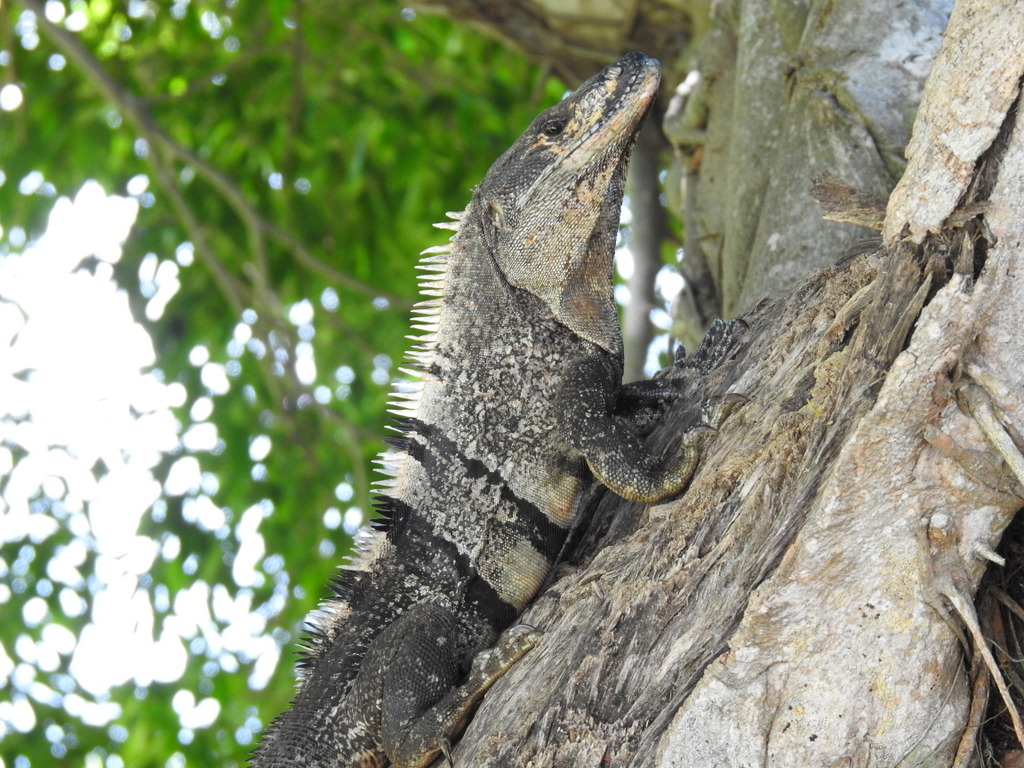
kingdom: Animalia
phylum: Chordata
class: Squamata
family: Iguanidae
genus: Ctenosaura
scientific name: Ctenosaura similis
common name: Black spiny-tailed iguana
